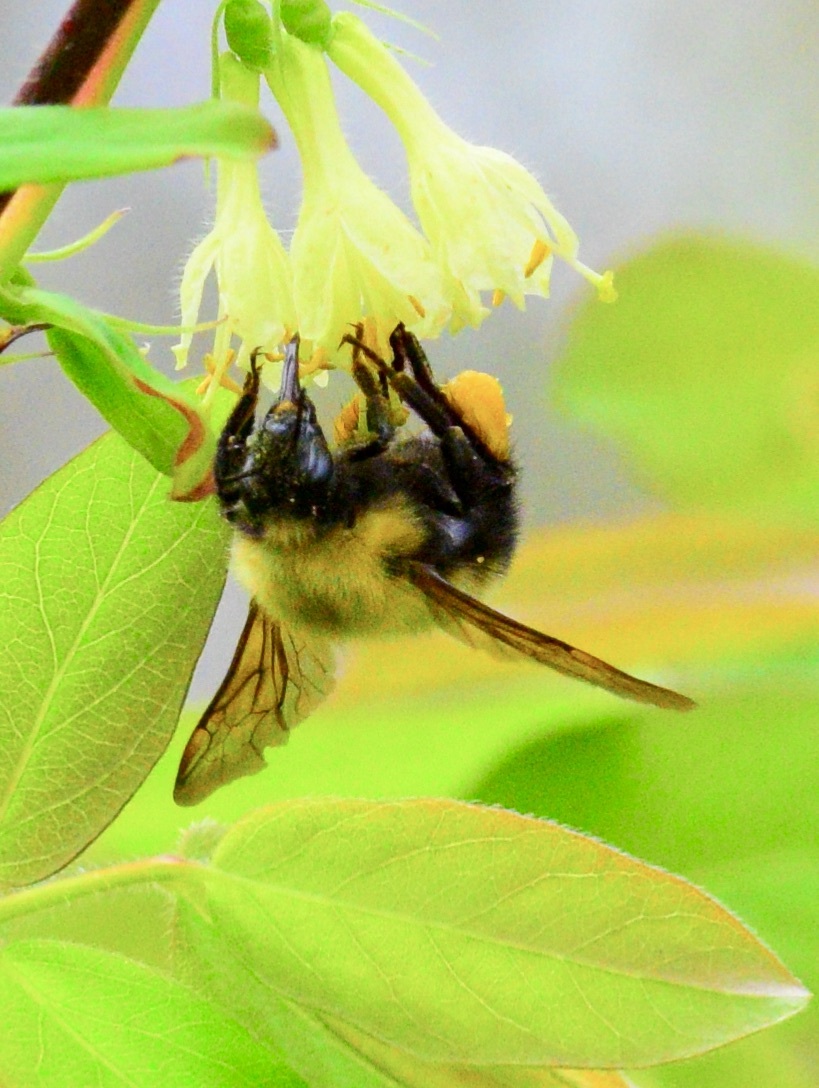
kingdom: Animalia
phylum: Arthropoda
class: Insecta
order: Hymenoptera
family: Apidae
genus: Bombus
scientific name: Bombus perplexus
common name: Confusing bumble bee
